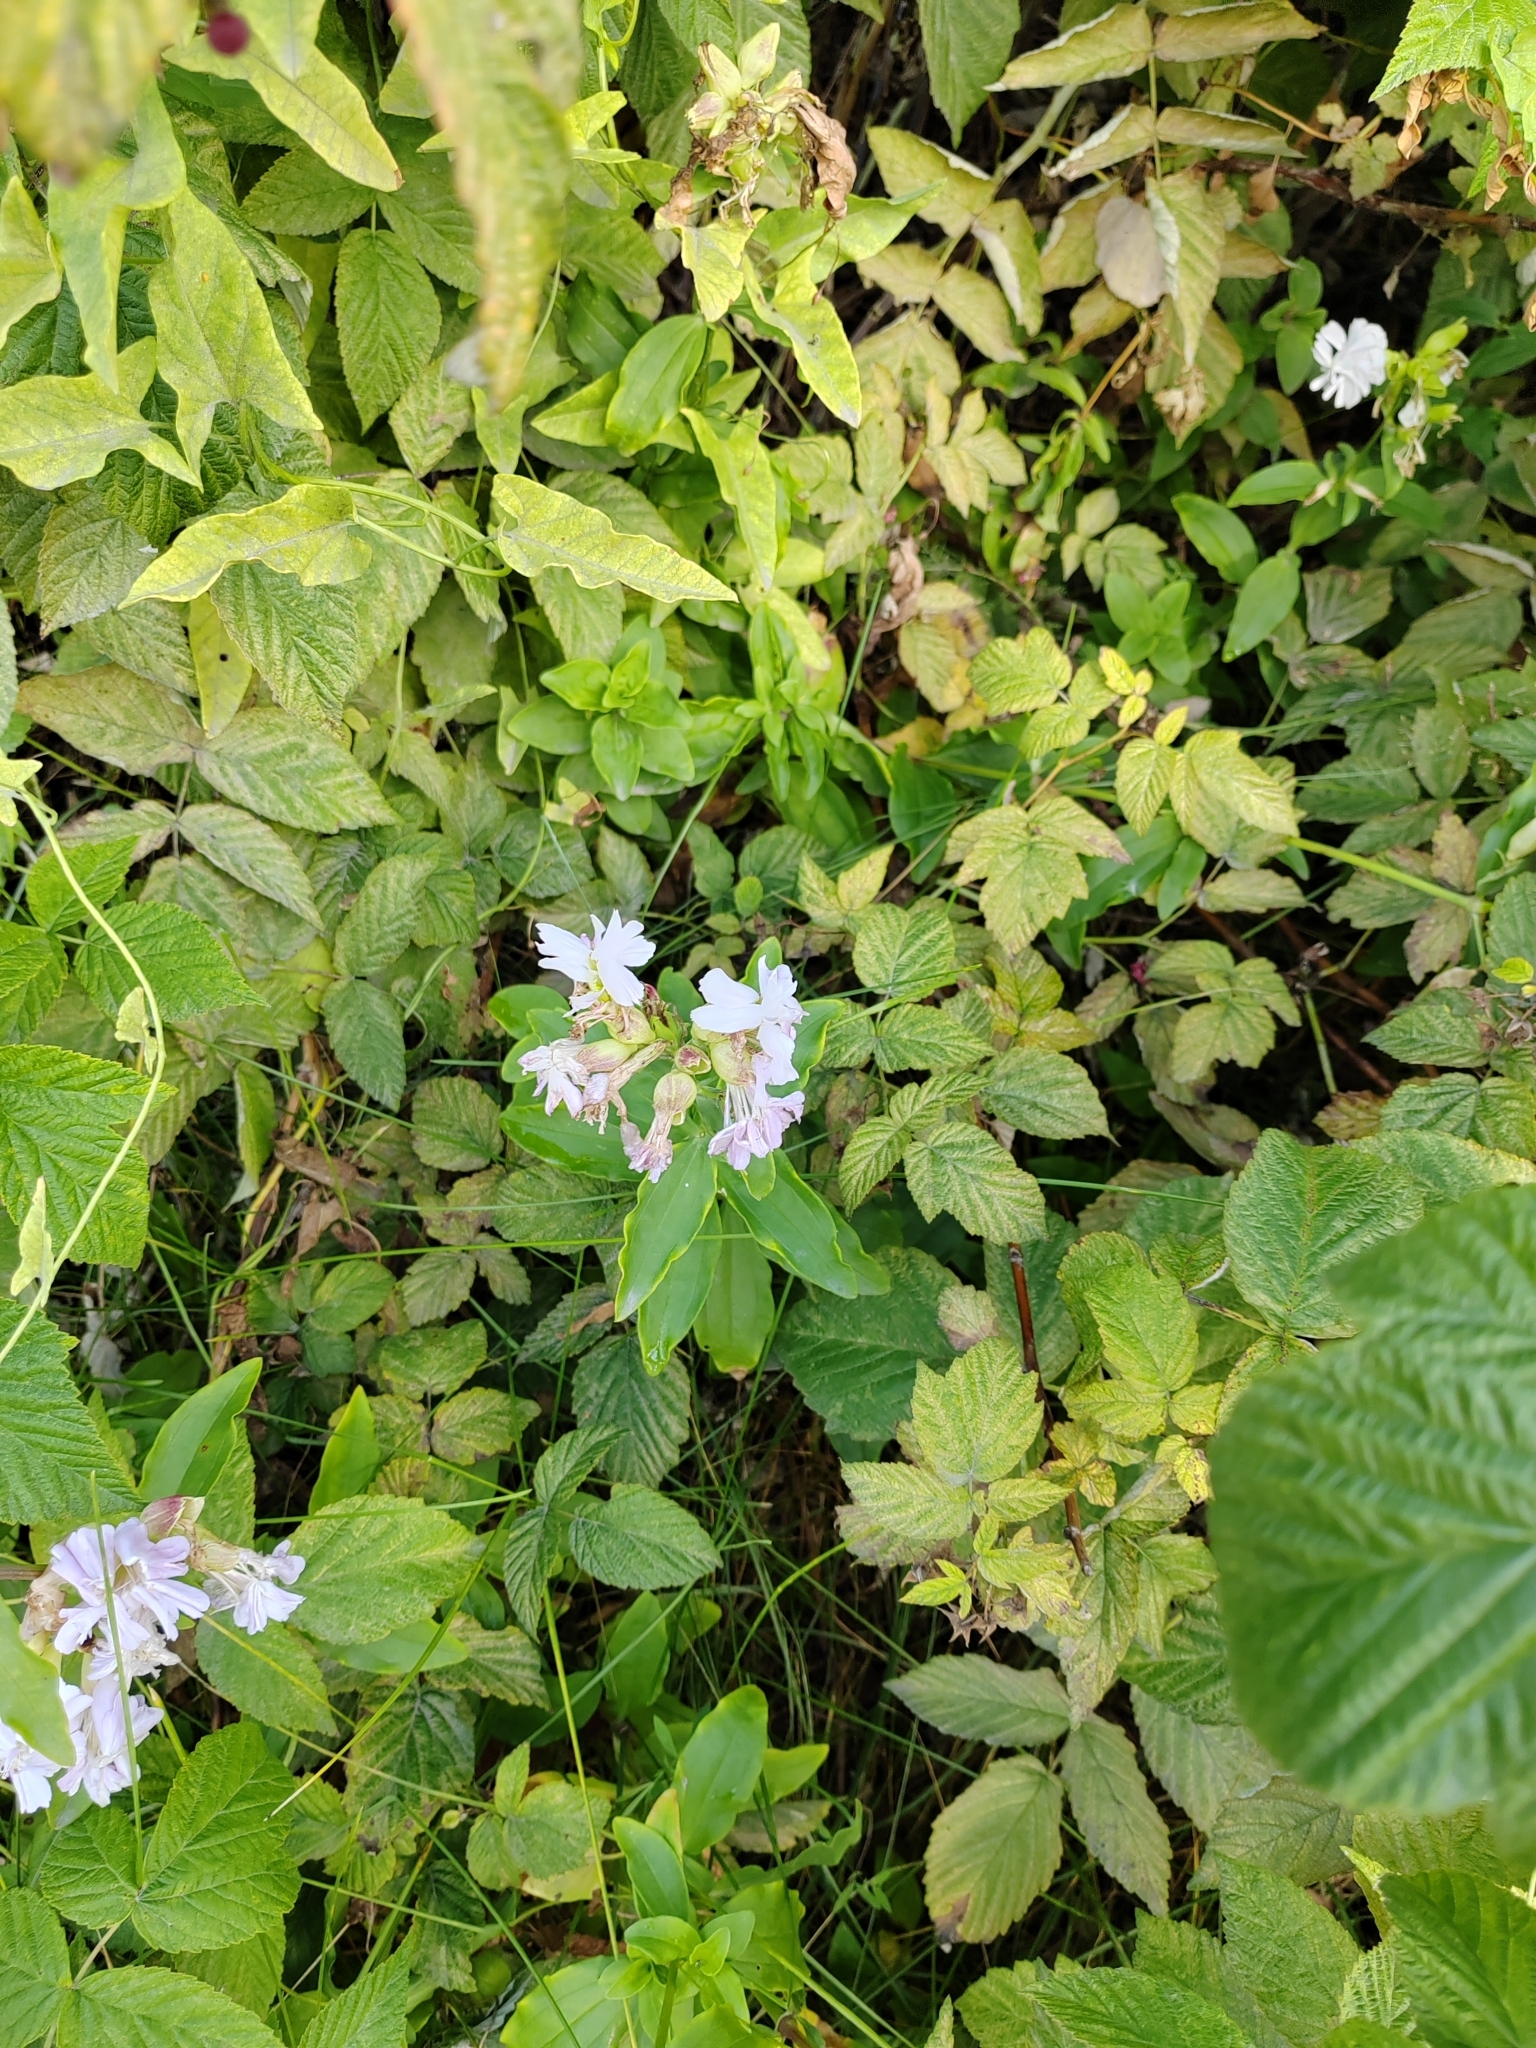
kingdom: Plantae
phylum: Tracheophyta
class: Magnoliopsida
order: Caryophyllales
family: Caryophyllaceae
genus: Saponaria
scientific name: Saponaria officinalis
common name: Soapwort
